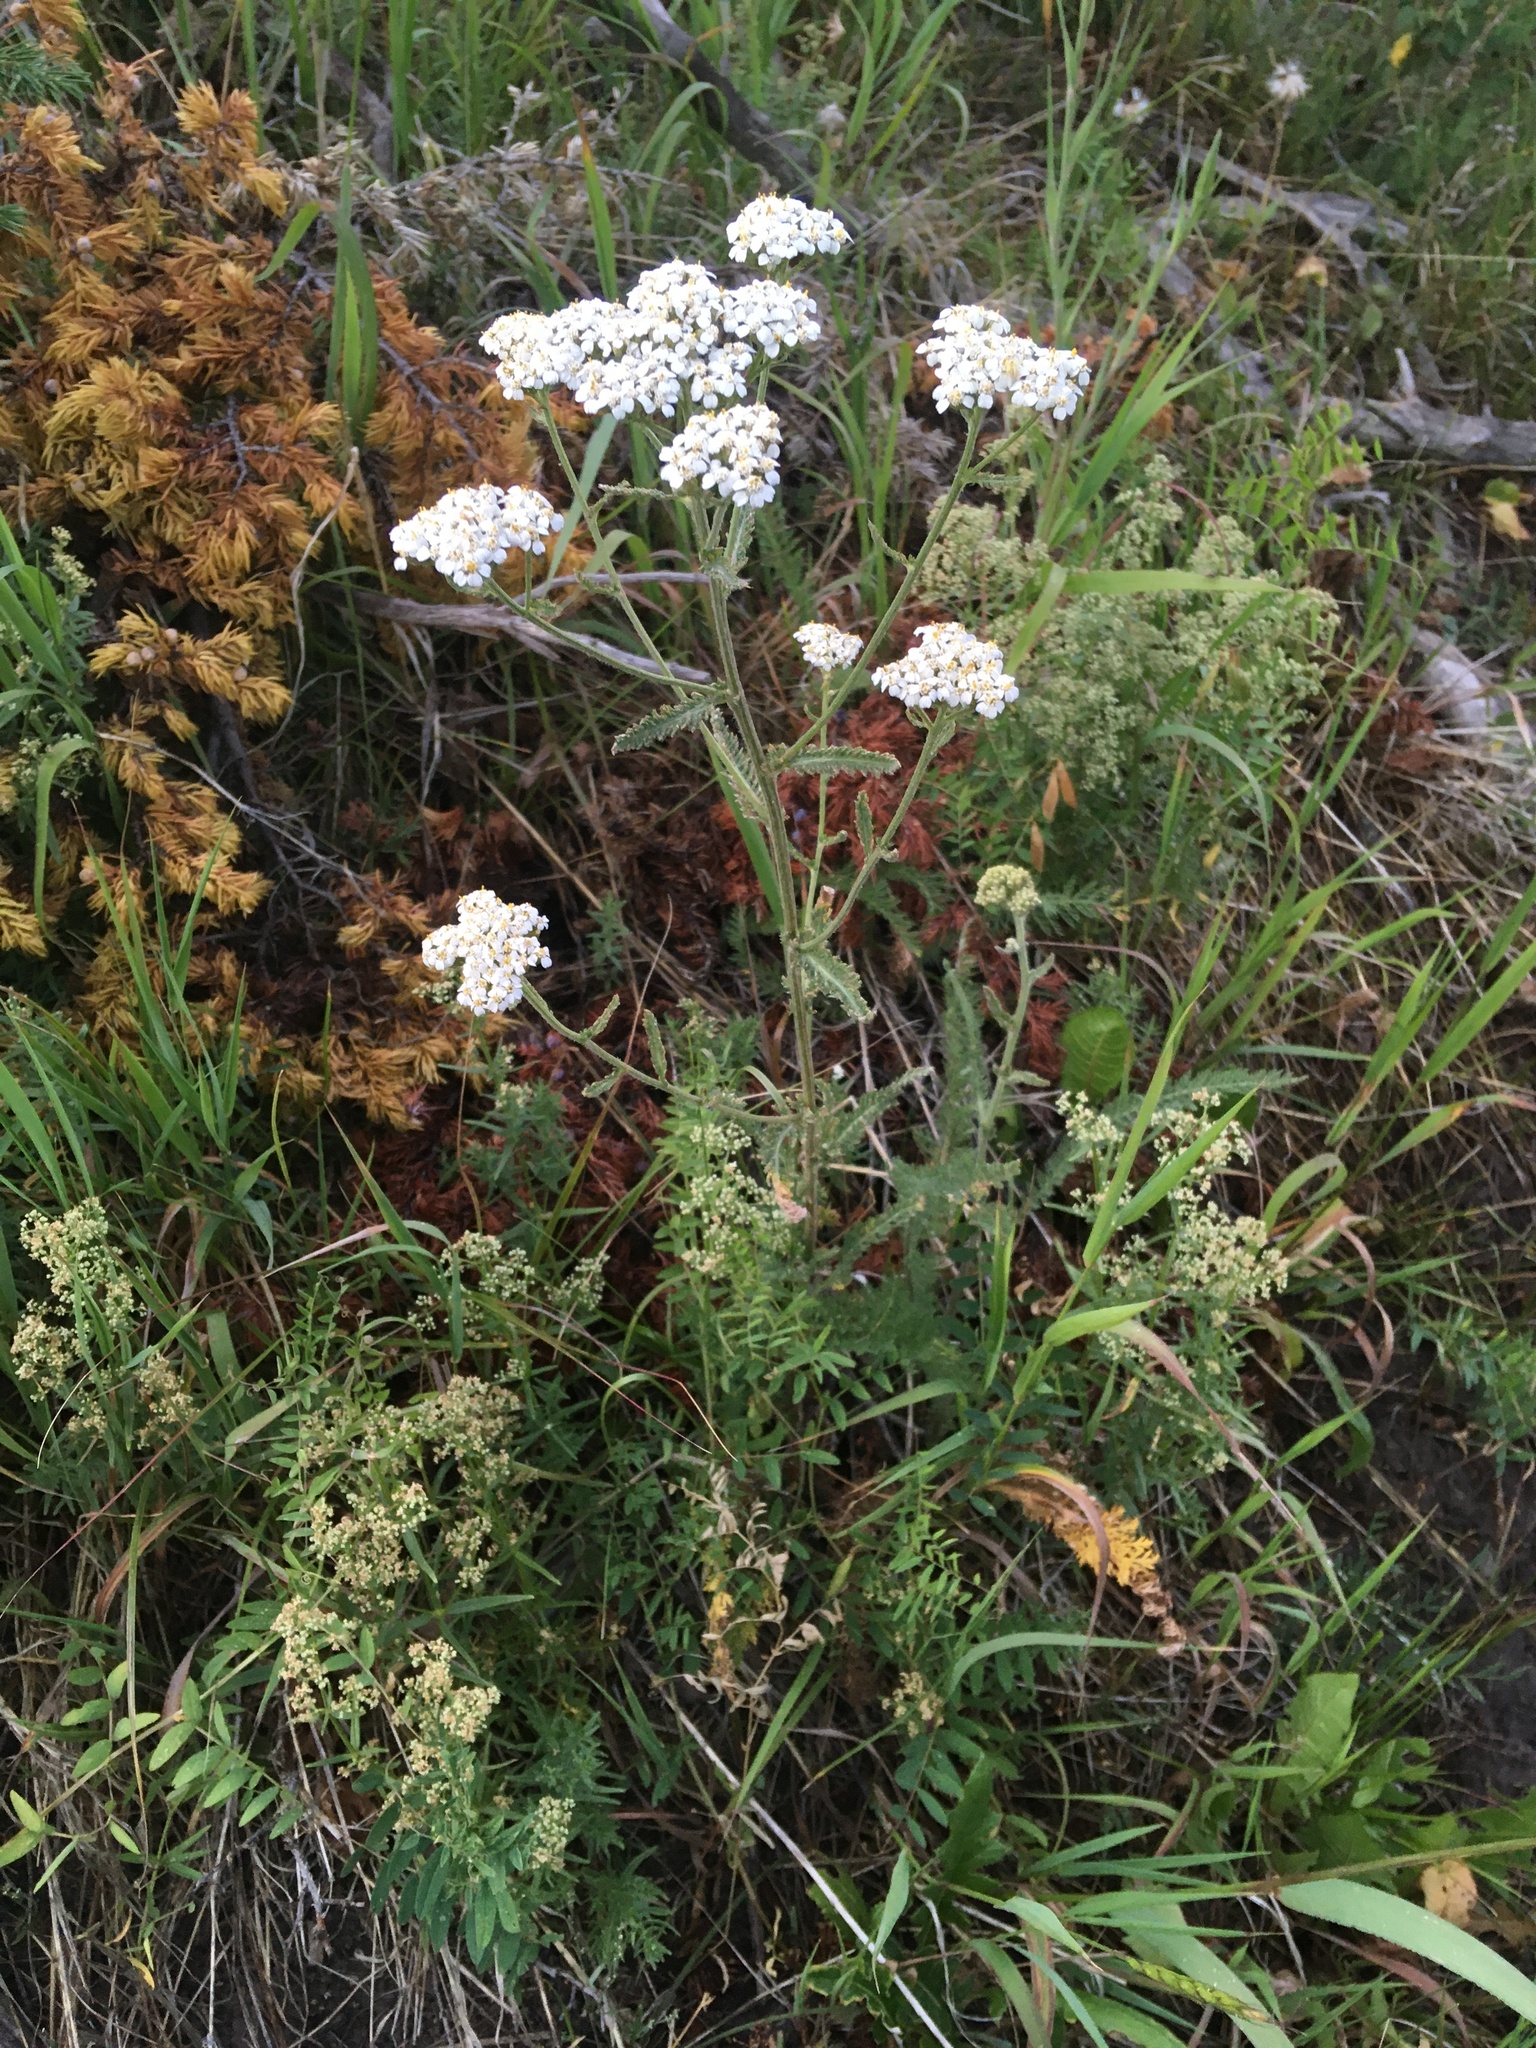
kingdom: Plantae
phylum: Tracheophyta
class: Magnoliopsida
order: Asterales
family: Asteraceae
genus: Achillea
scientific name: Achillea millefolium
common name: Yarrow
